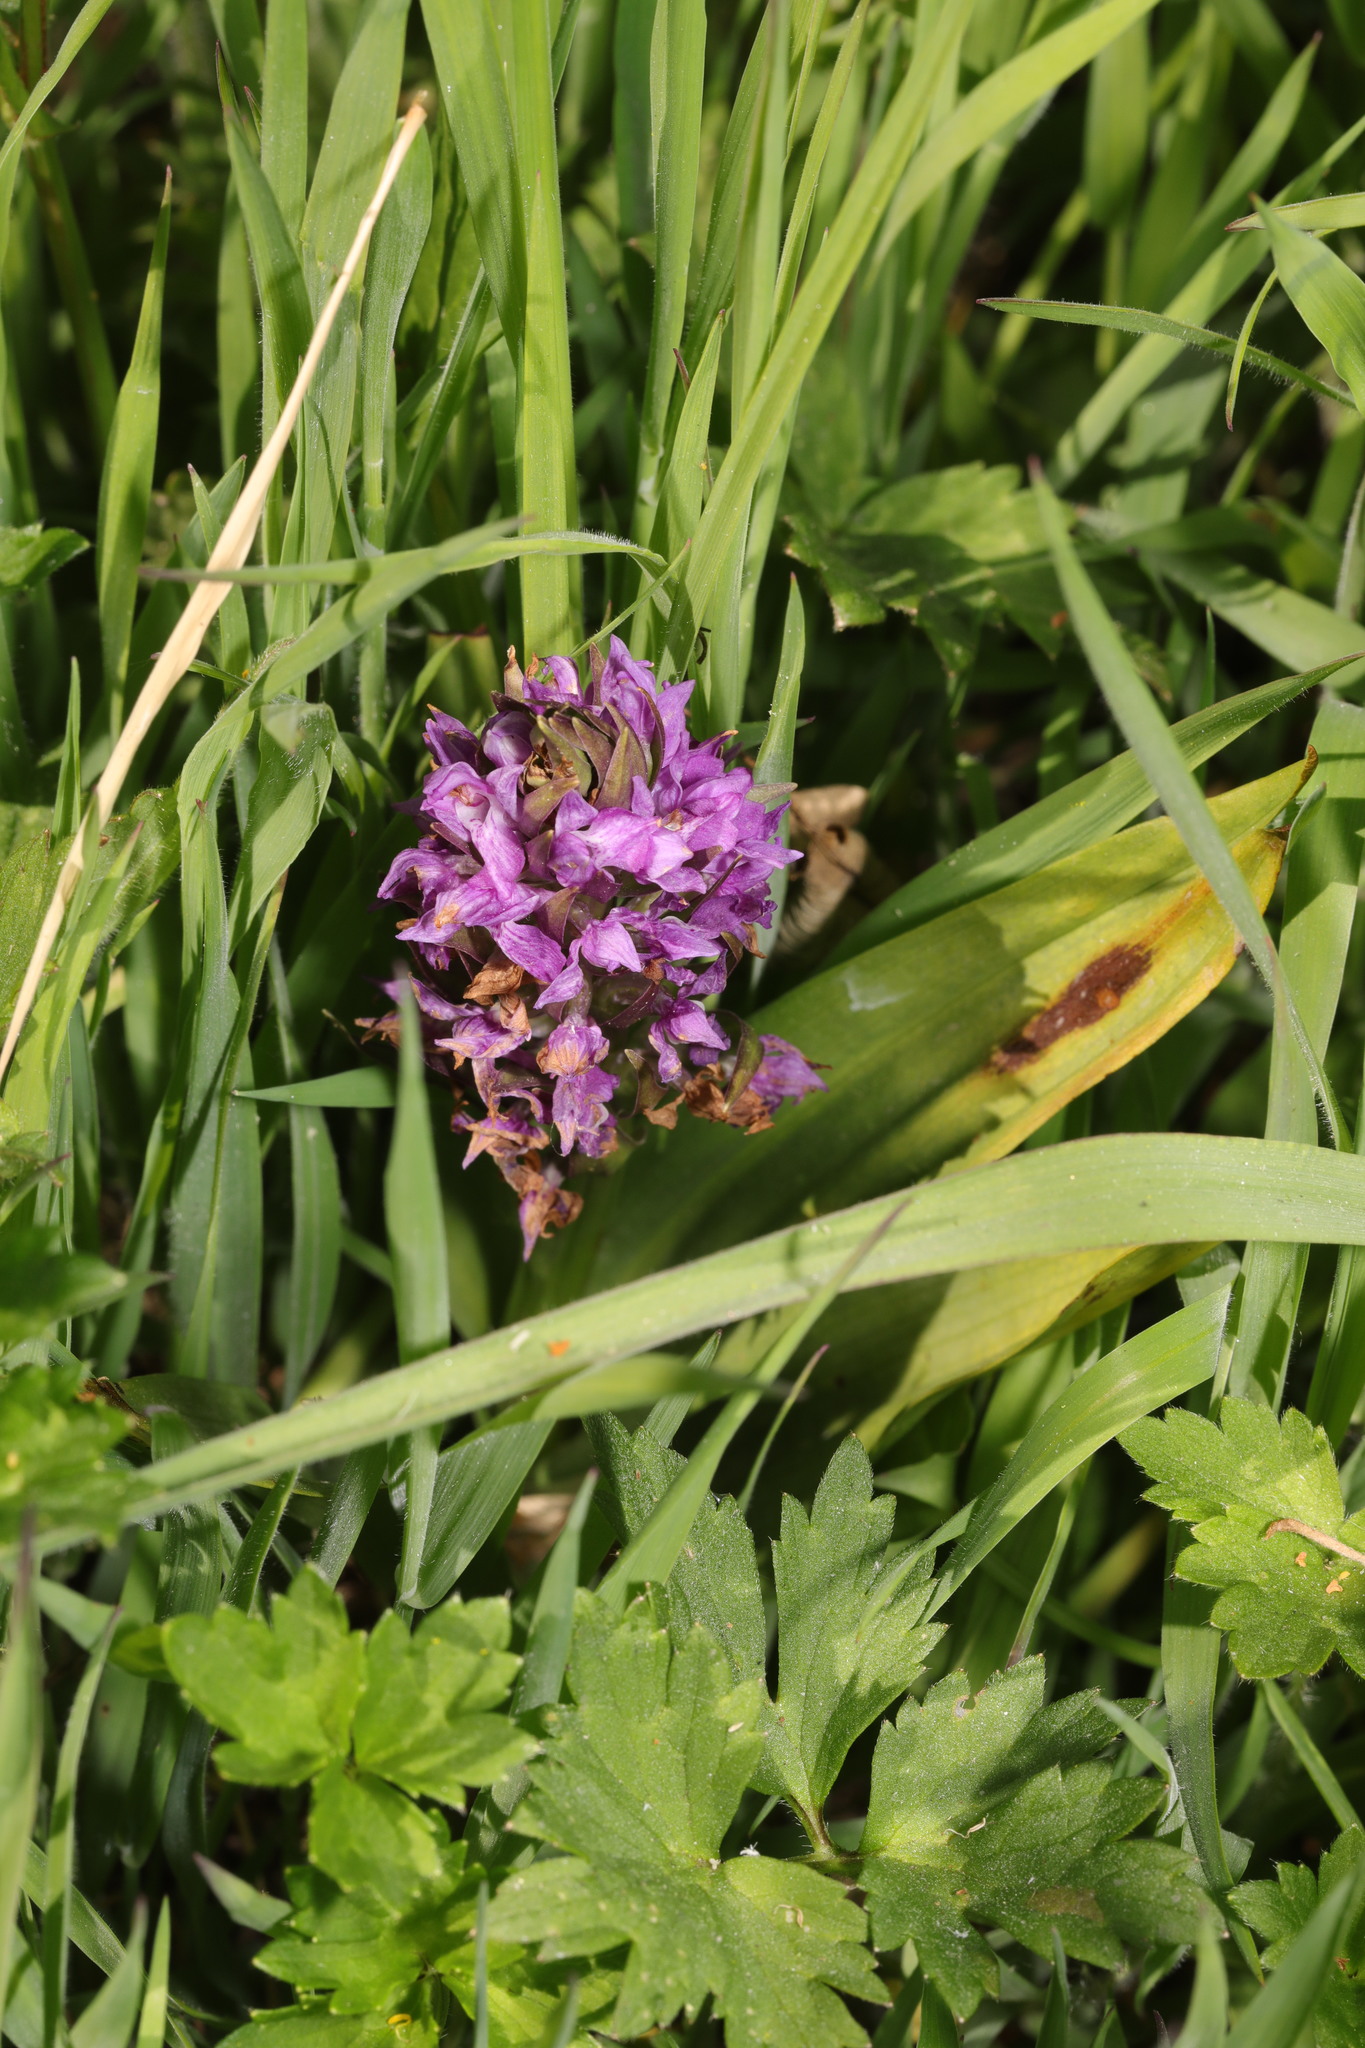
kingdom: Plantae
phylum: Tracheophyta
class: Liliopsida
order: Asparagales
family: Orchidaceae
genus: Dactylorhiza
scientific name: Dactylorhiza majalis
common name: Marsh orchid
